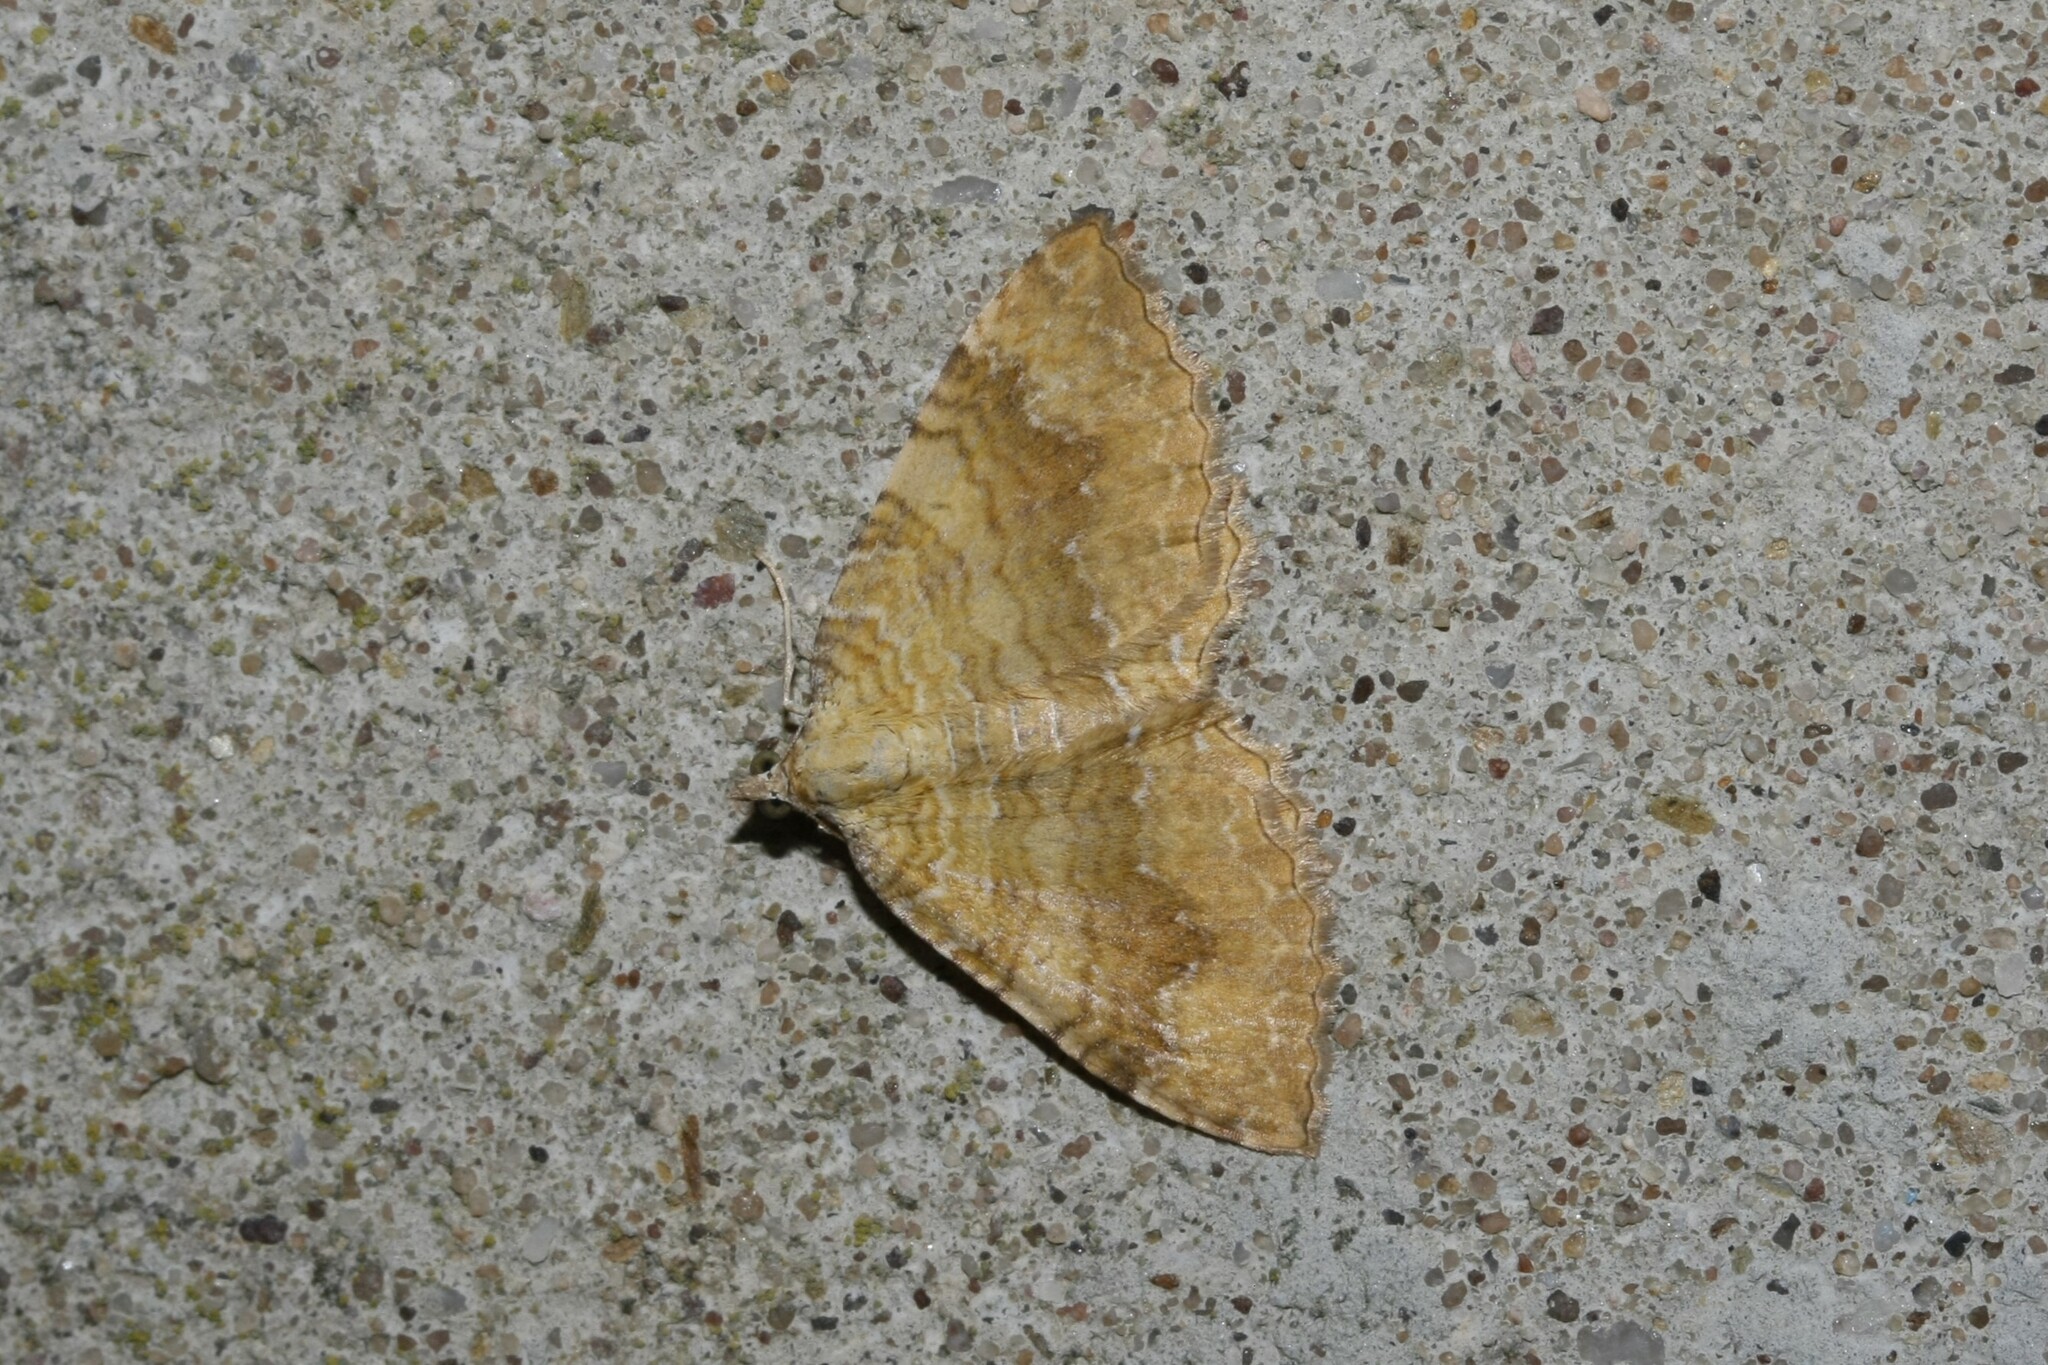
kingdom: Animalia
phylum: Arthropoda
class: Insecta
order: Lepidoptera
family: Geometridae
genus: Camptogramma
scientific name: Camptogramma bilineata
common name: Yellow shell
